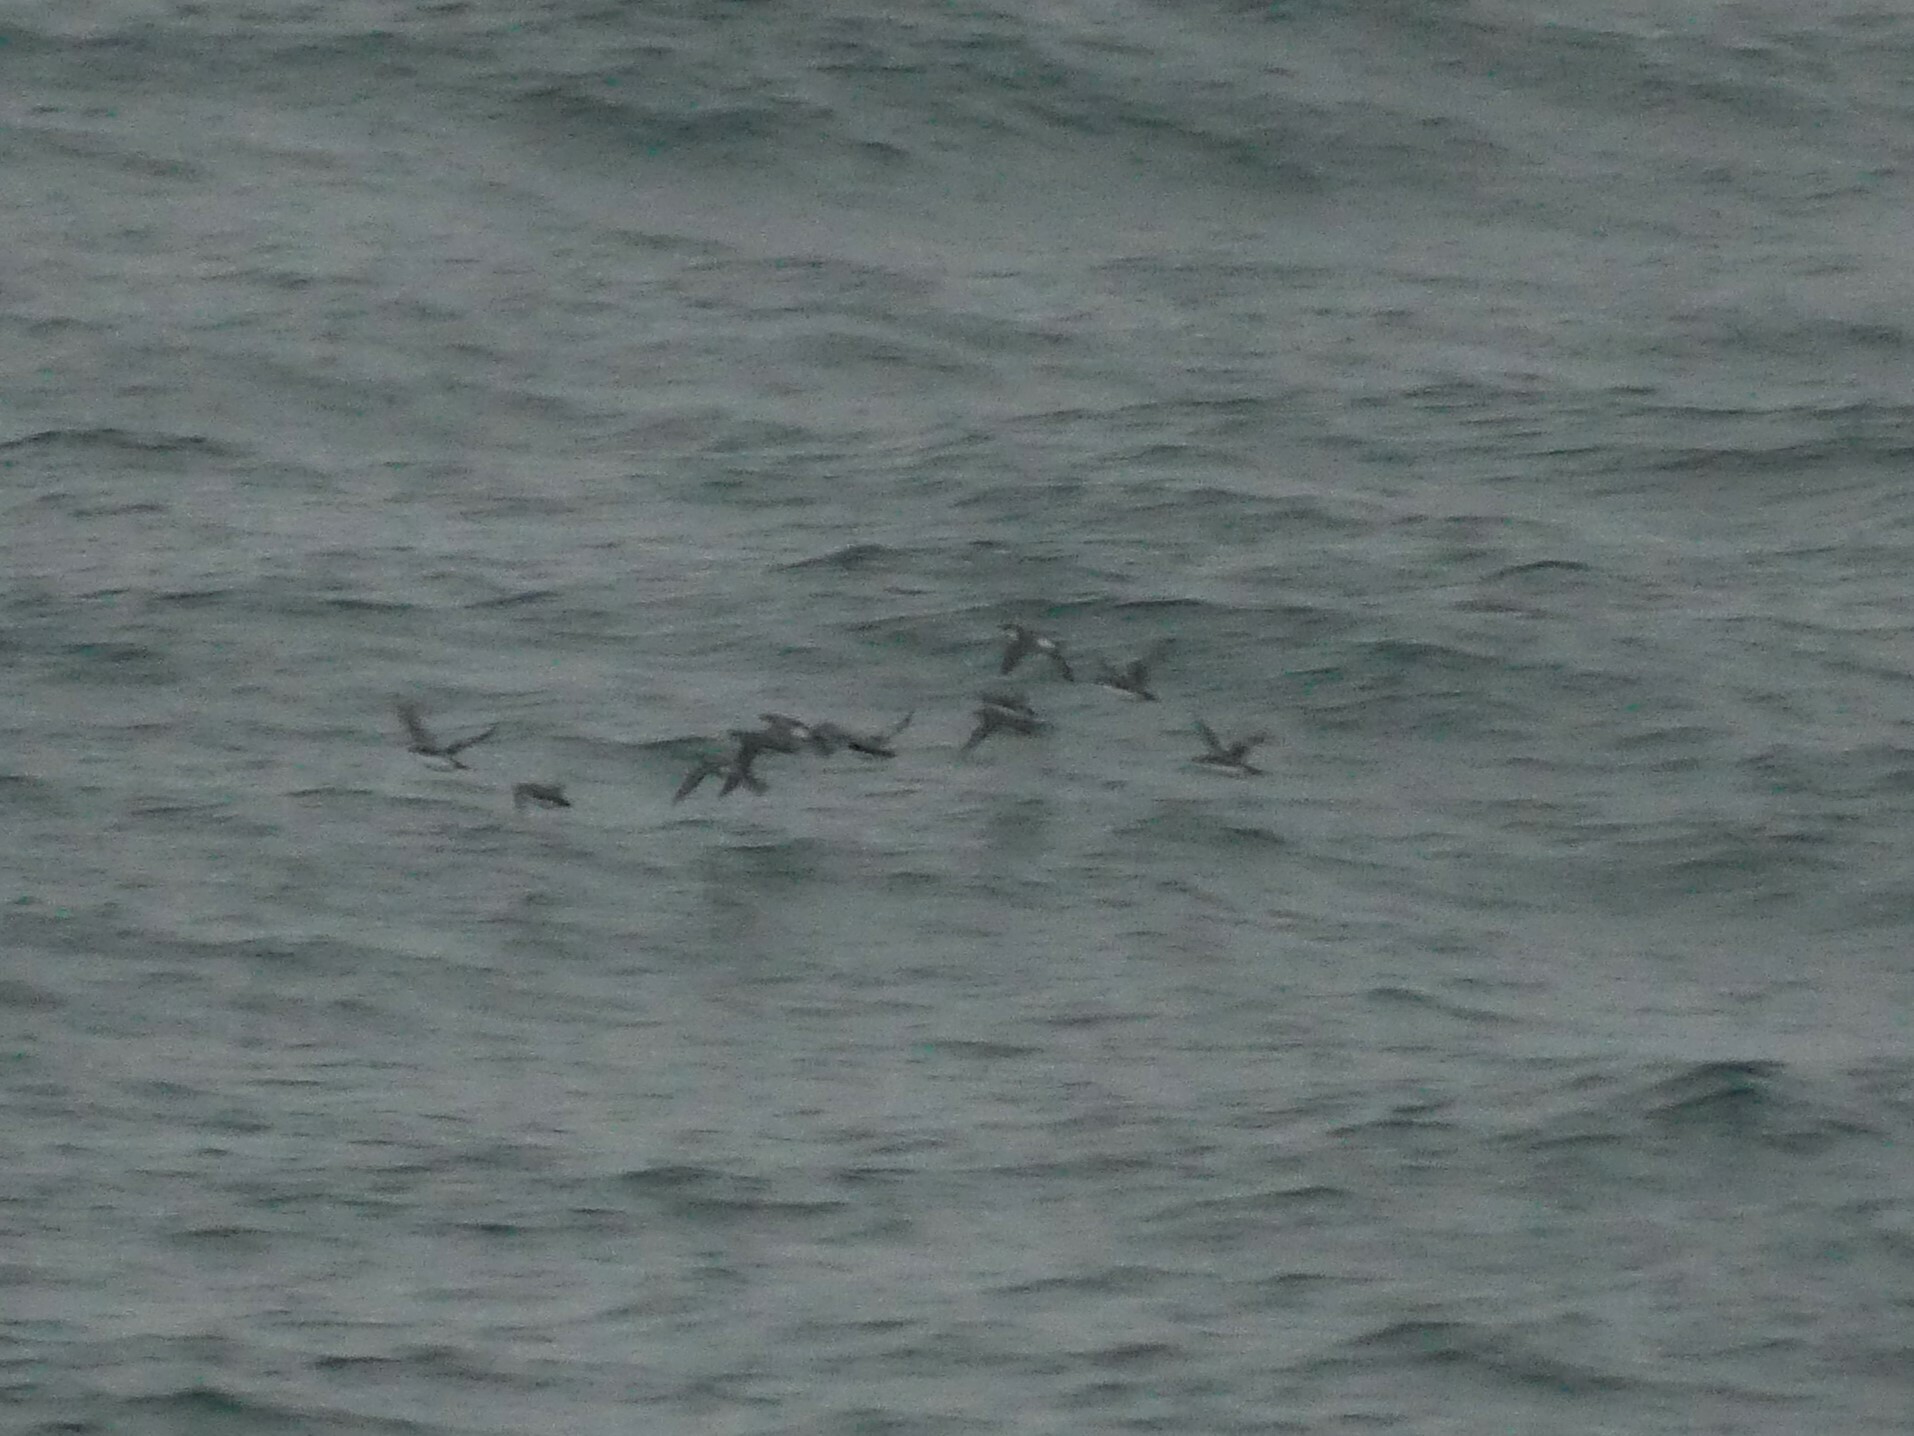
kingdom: Animalia
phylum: Chordata
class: Aves
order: Charadriiformes
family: Alcidae
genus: Synthliboramphus
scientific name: Synthliboramphus antiquus
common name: Ancient murrelet
